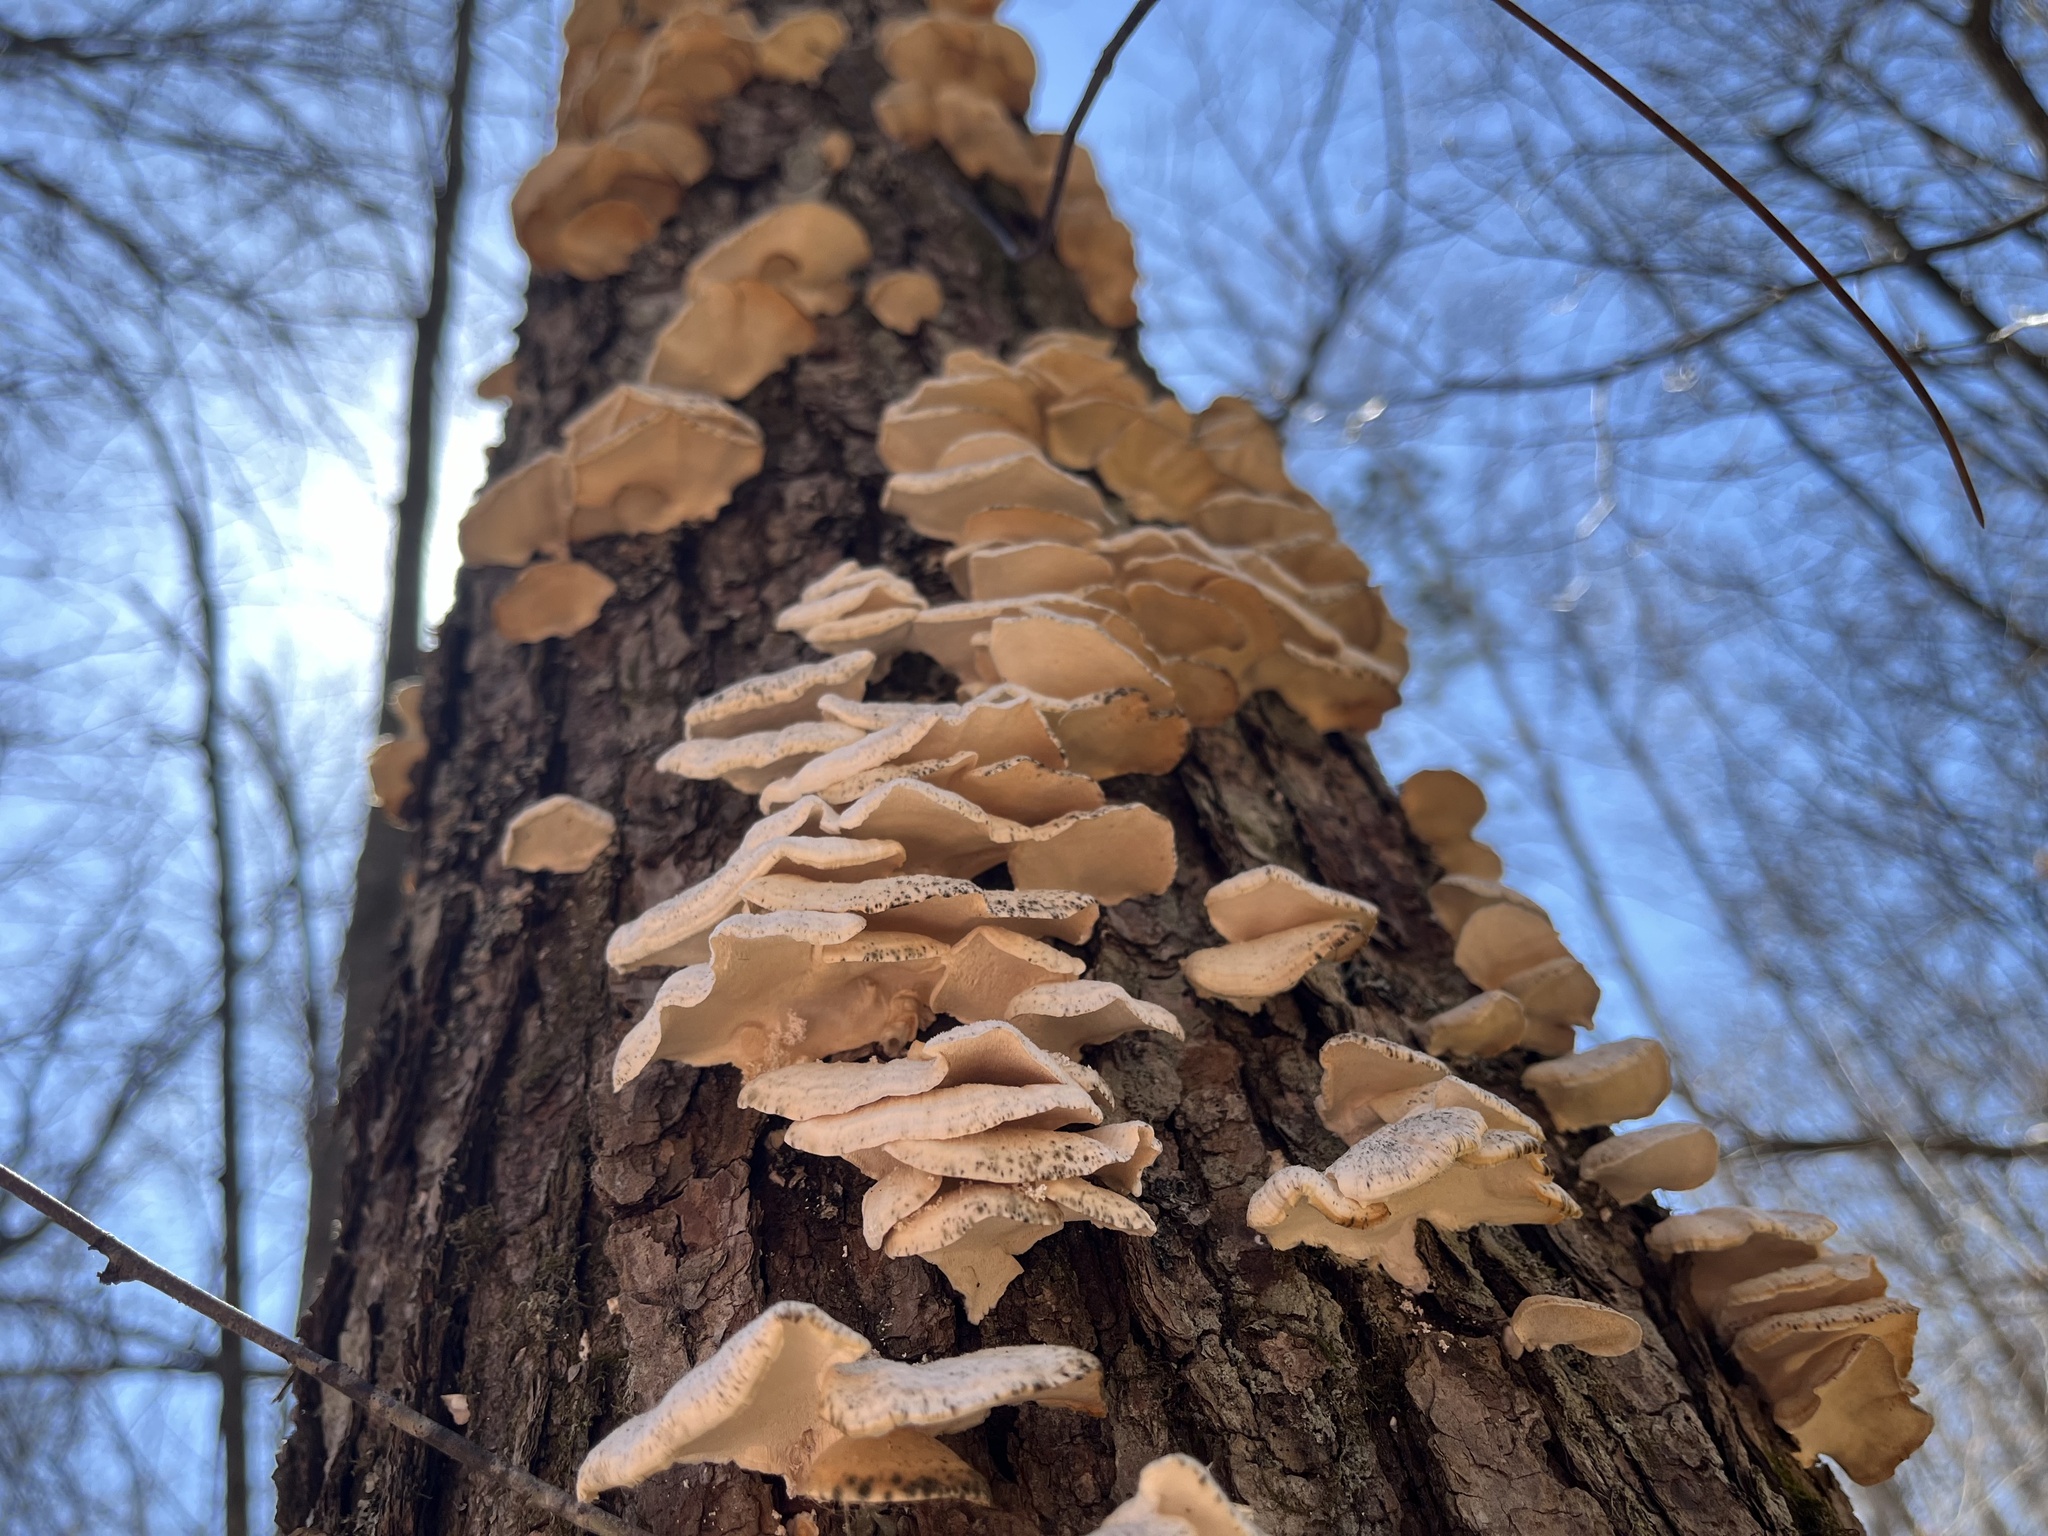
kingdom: Fungi
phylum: Basidiomycota
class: Agaricomycetes
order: Polyporales
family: Polyporaceae
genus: Trametes
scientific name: Trametes pubescens
